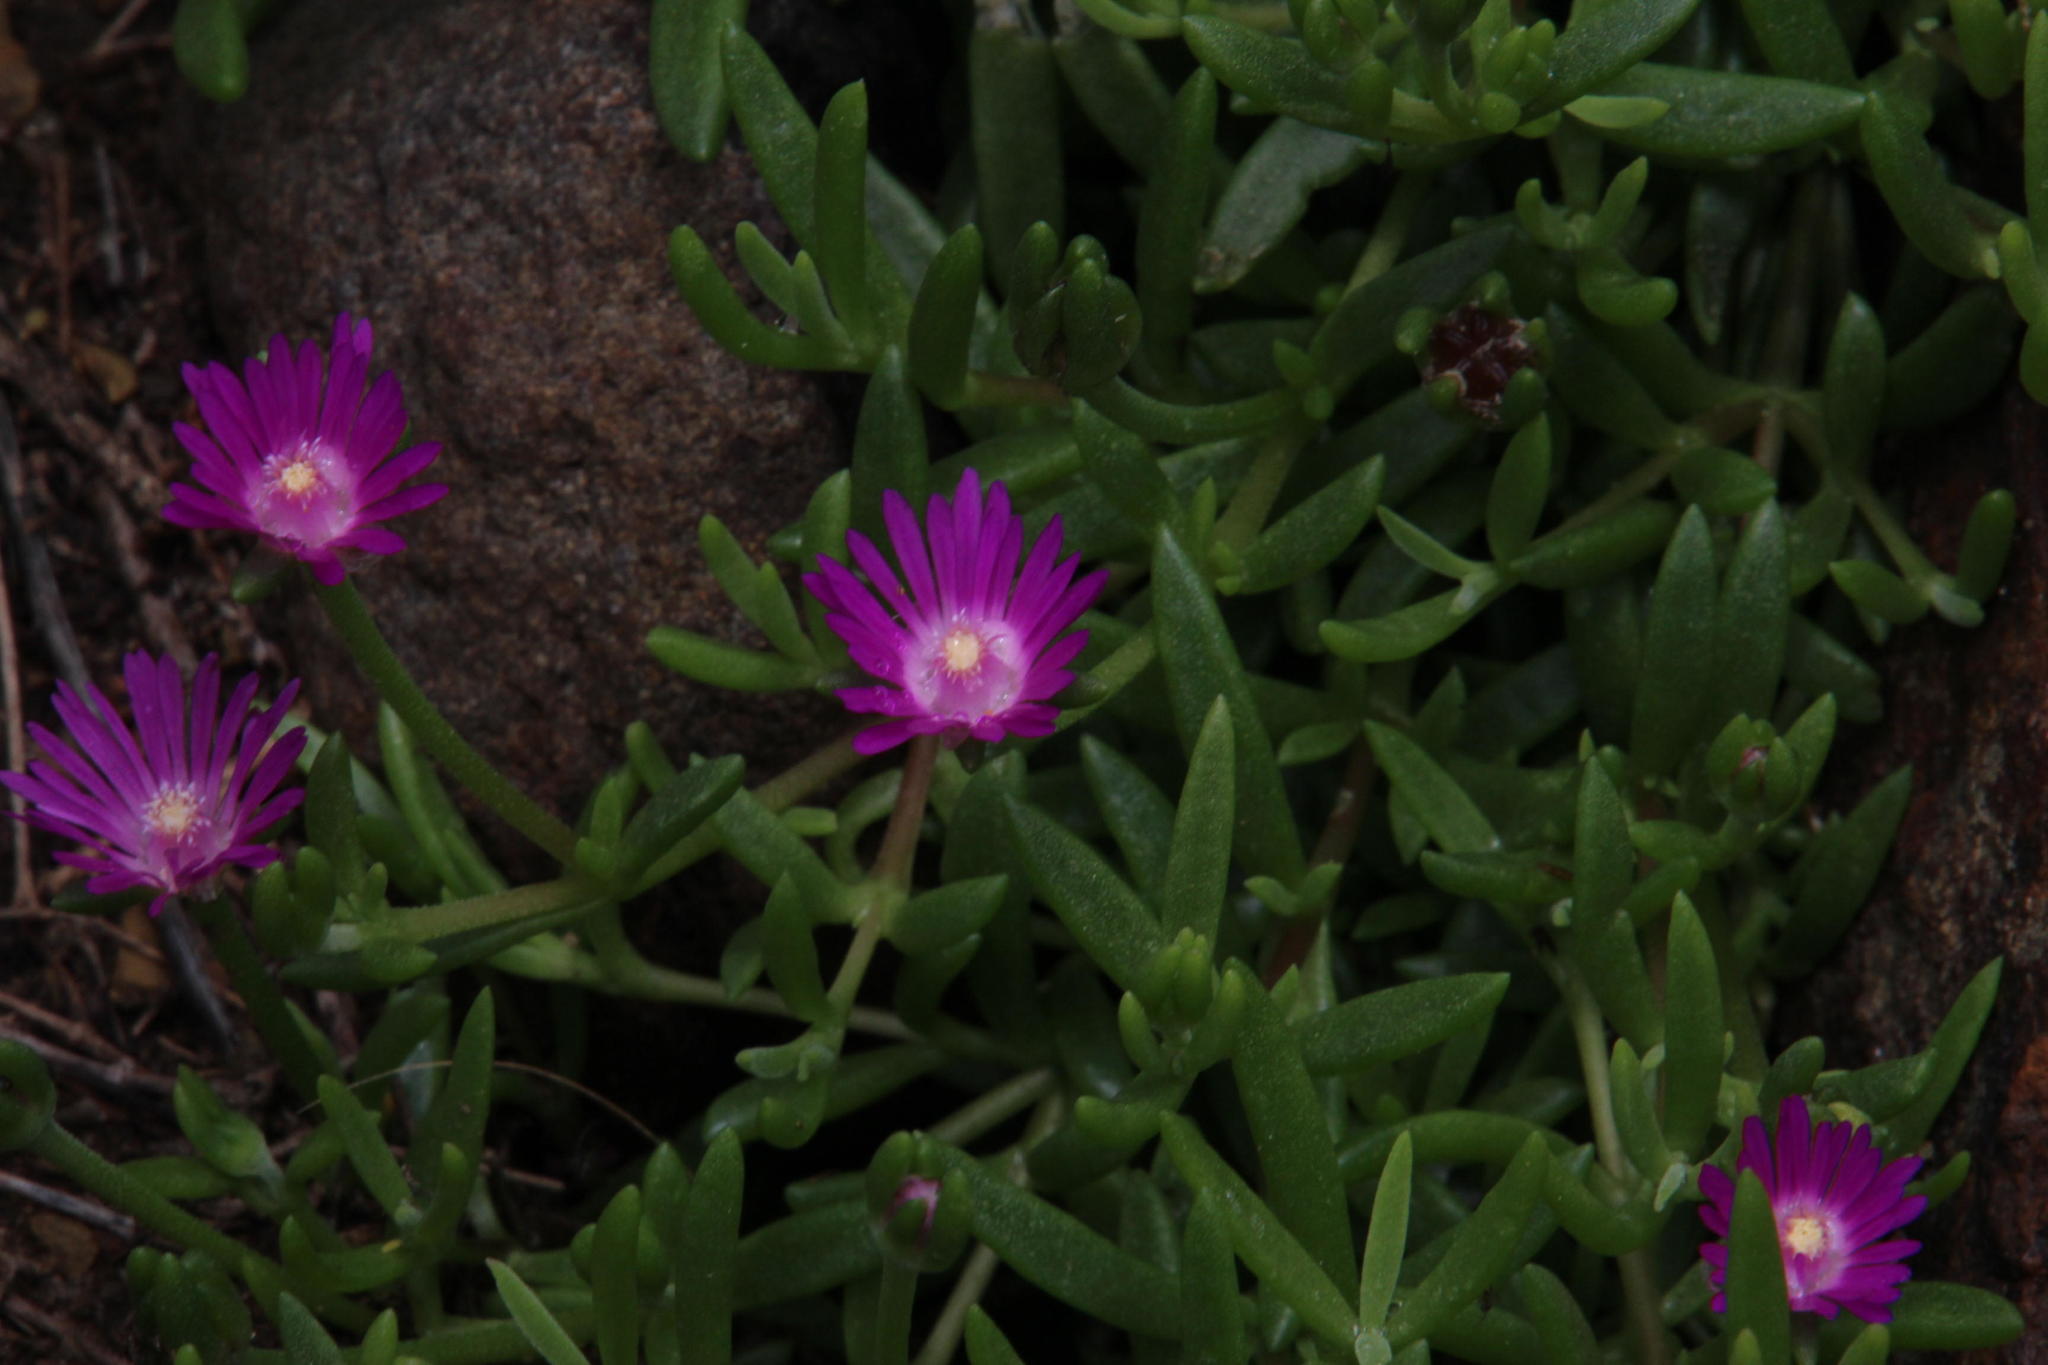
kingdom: Plantae
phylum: Tracheophyta
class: Magnoliopsida
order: Caryophyllales
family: Aizoaceae
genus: Delosperma
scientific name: Delosperma grantiae
